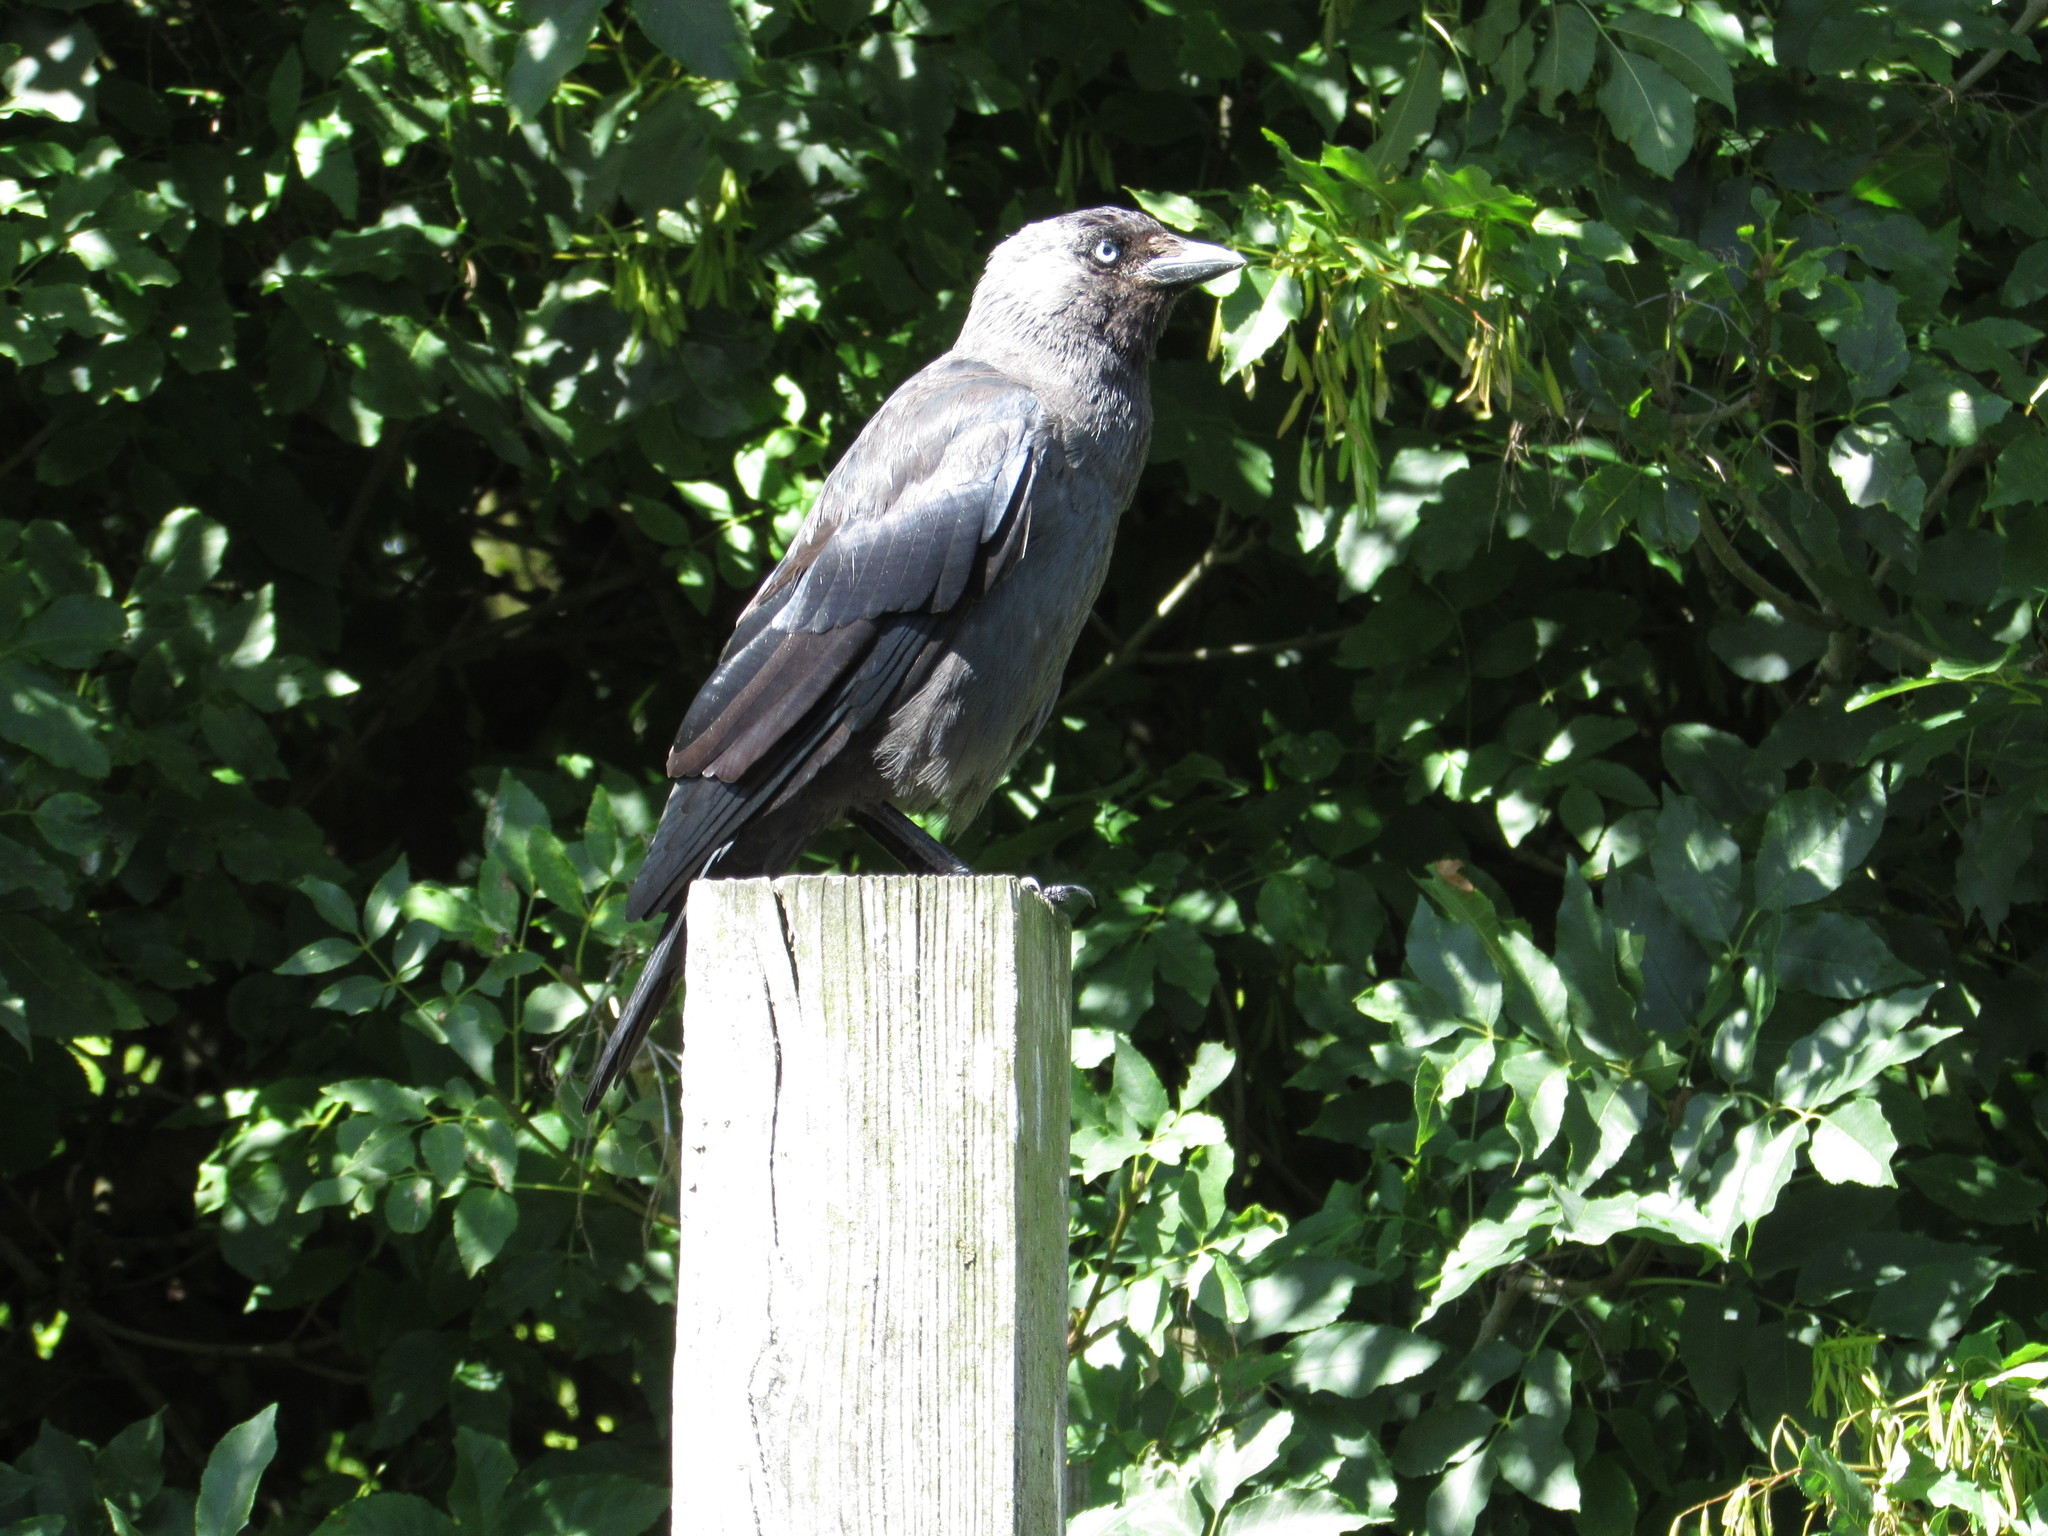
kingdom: Animalia
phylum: Chordata
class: Aves
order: Passeriformes
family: Corvidae
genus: Coloeus
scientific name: Coloeus monedula
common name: Western jackdaw
